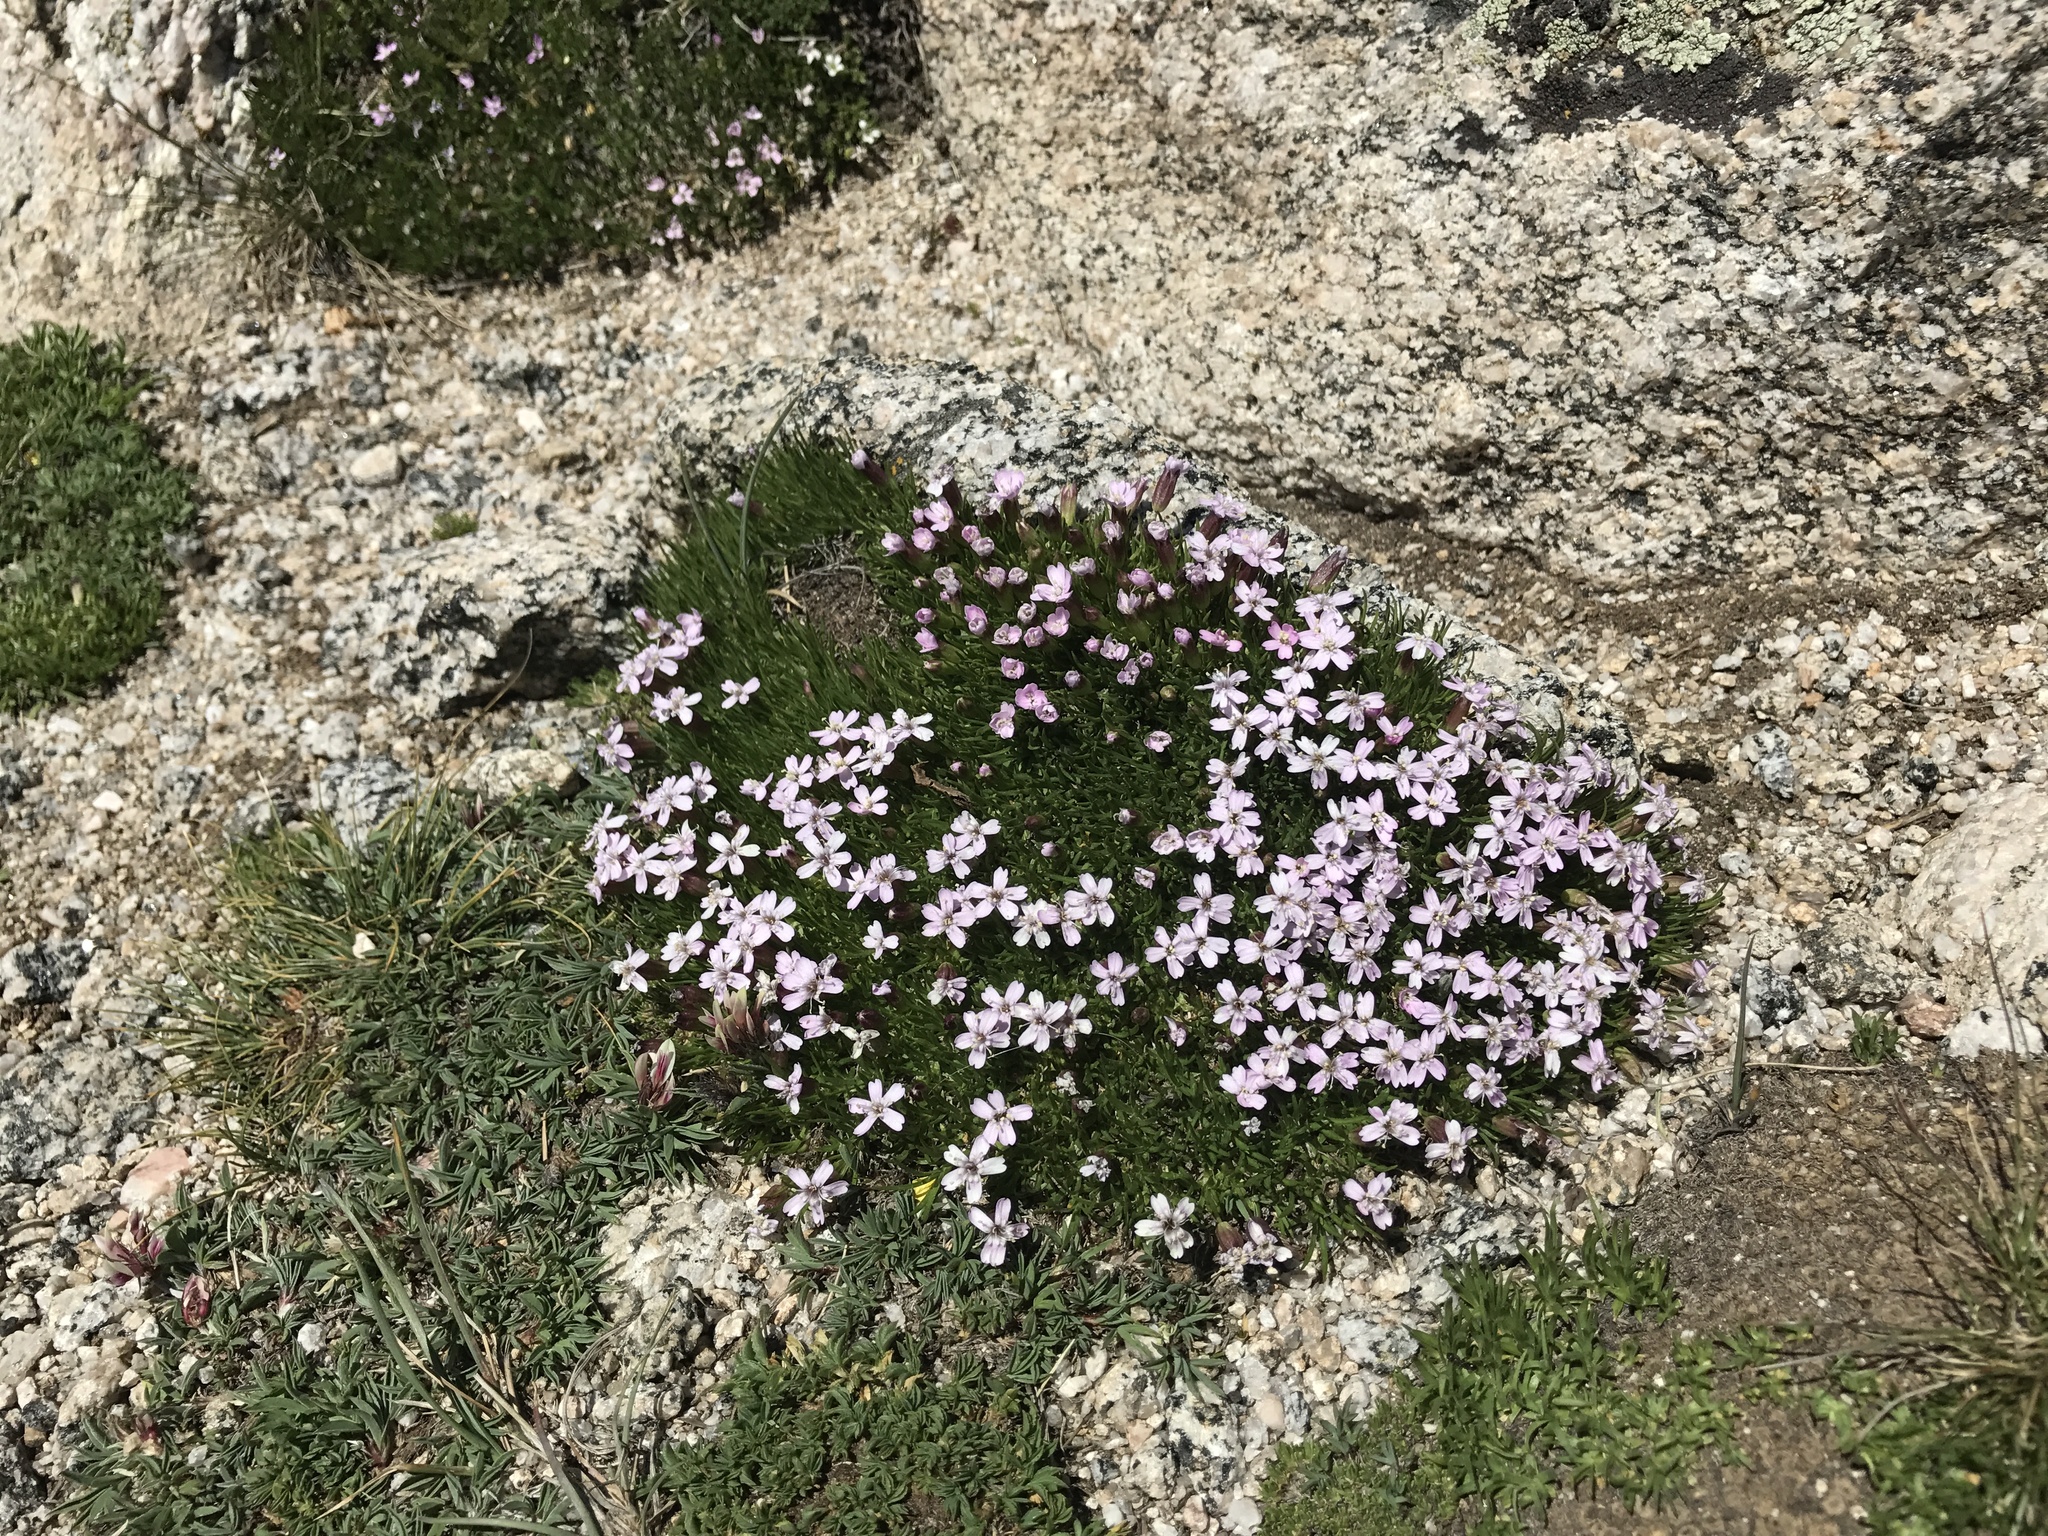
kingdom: Plantae
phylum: Tracheophyta
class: Magnoliopsida
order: Caryophyllales
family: Caryophyllaceae
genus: Silene
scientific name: Silene acaulis
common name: Moss campion
